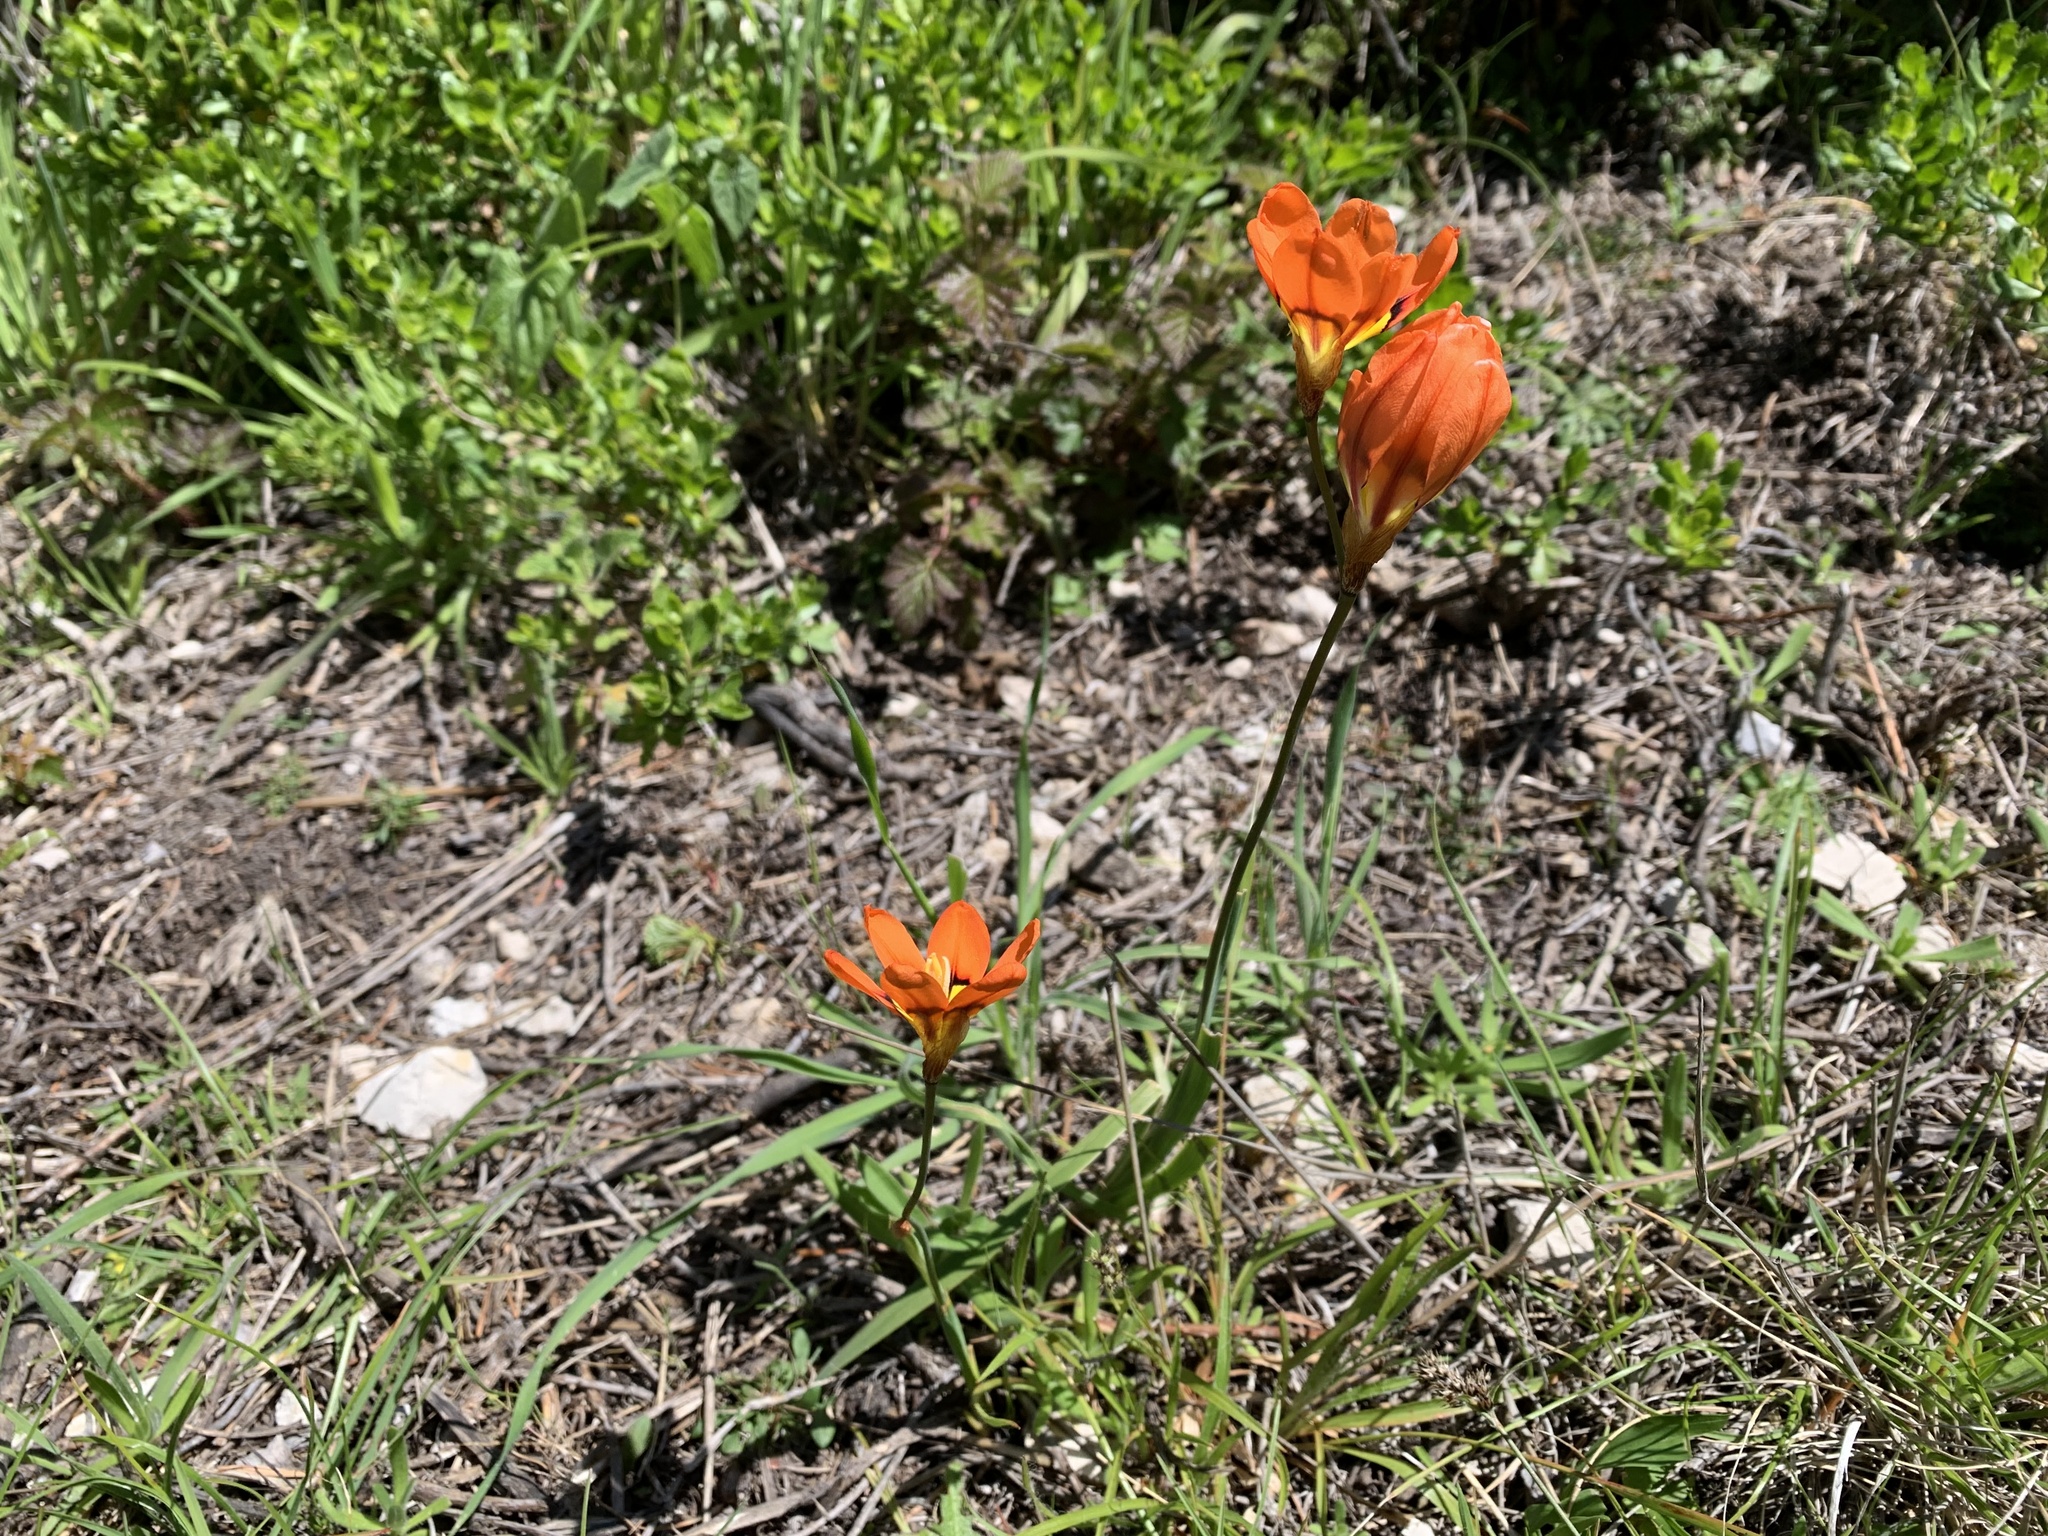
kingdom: Plantae
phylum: Tracheophyta
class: Liliopsida
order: Asparagales
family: Iridaceae
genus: Sparaxis
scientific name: Sparaxis tricolor
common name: Wandflower
